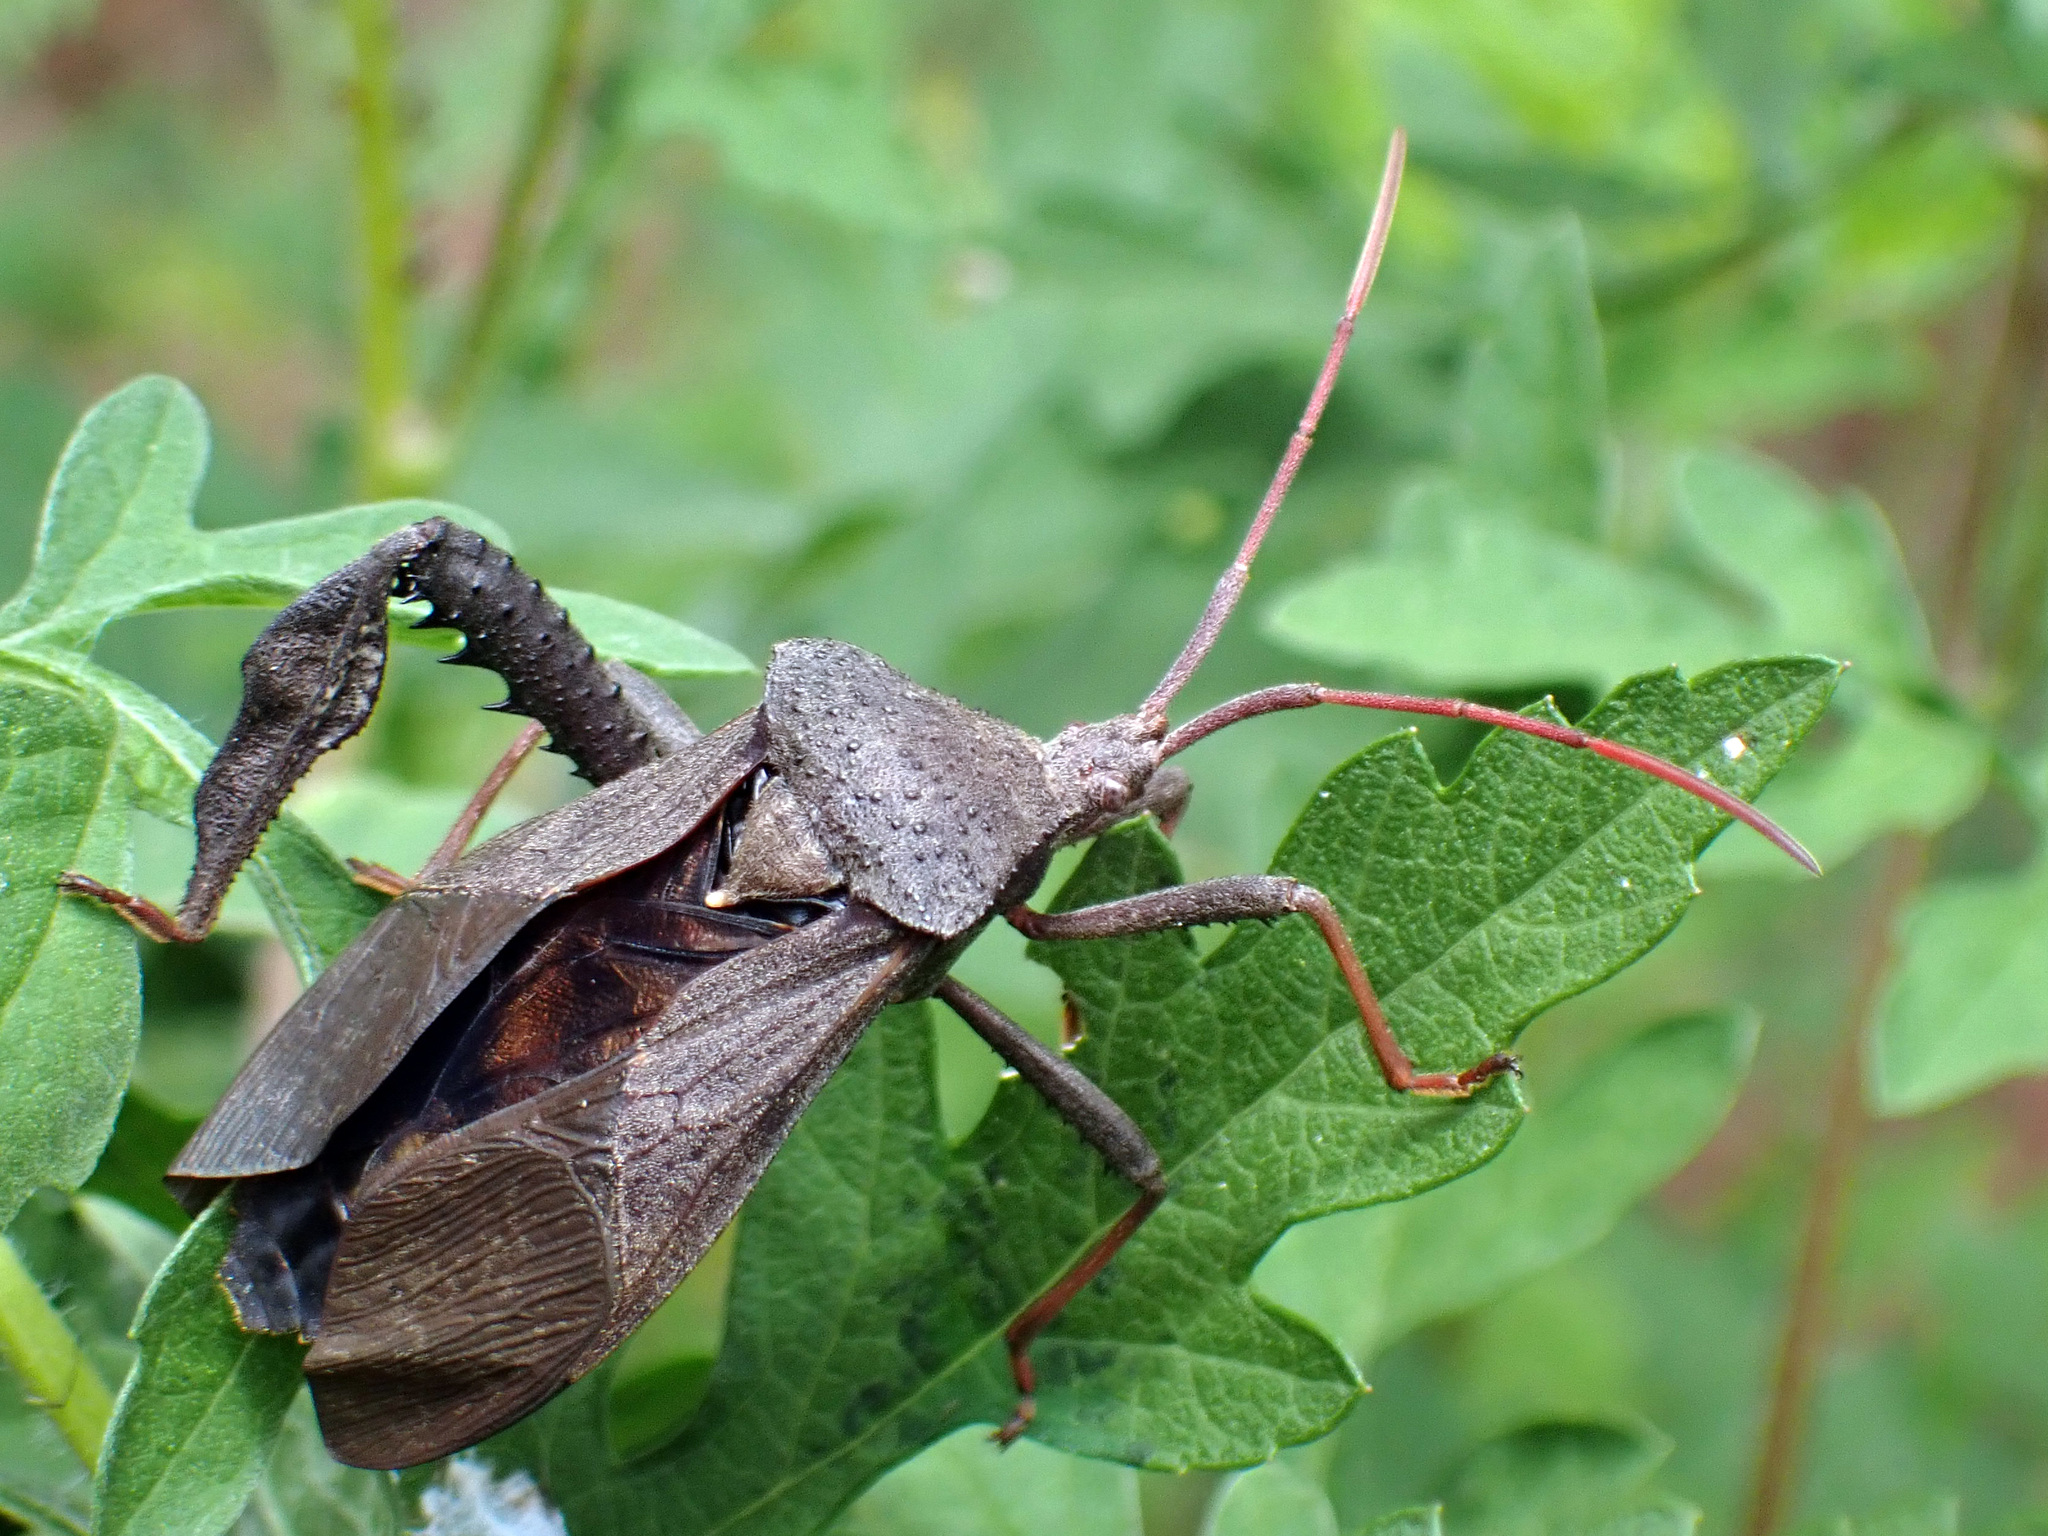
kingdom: Animalia
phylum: Arthropoda
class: Insecta
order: Hemiptera
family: Coreidae
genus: Acanthocephala
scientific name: Acanthocephala femorata
